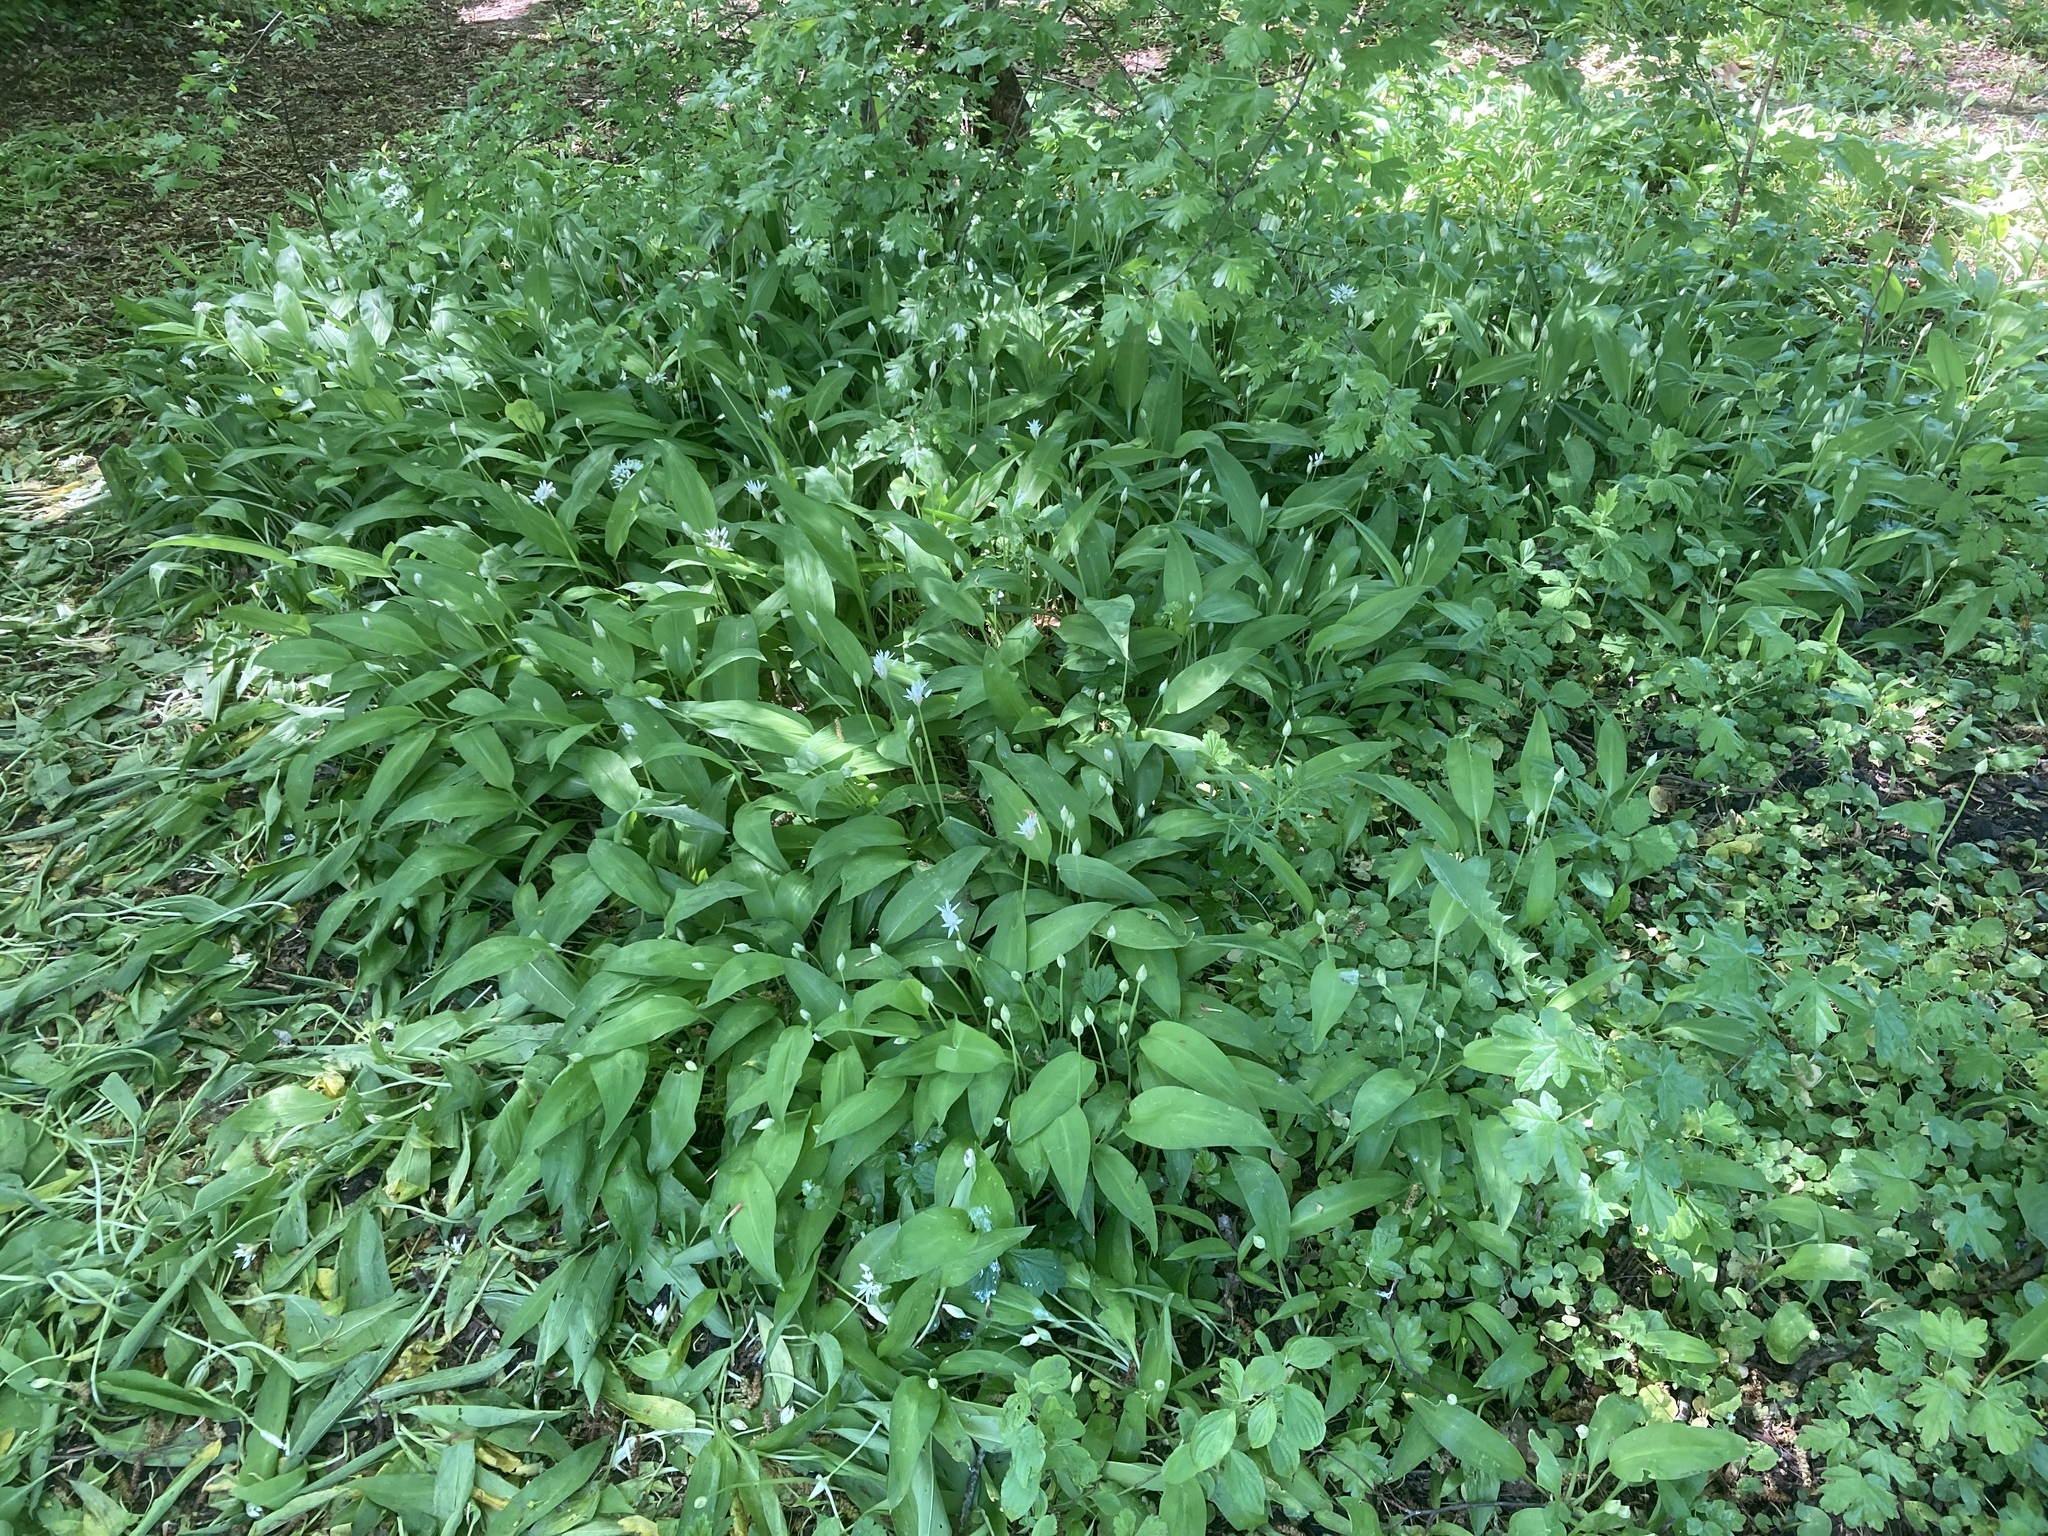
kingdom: Plantae
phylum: Tracheophyta
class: Liliopsida
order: Asparagales
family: Amaryllidaceae
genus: Allium
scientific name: Allium ursinum
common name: Ramsons
